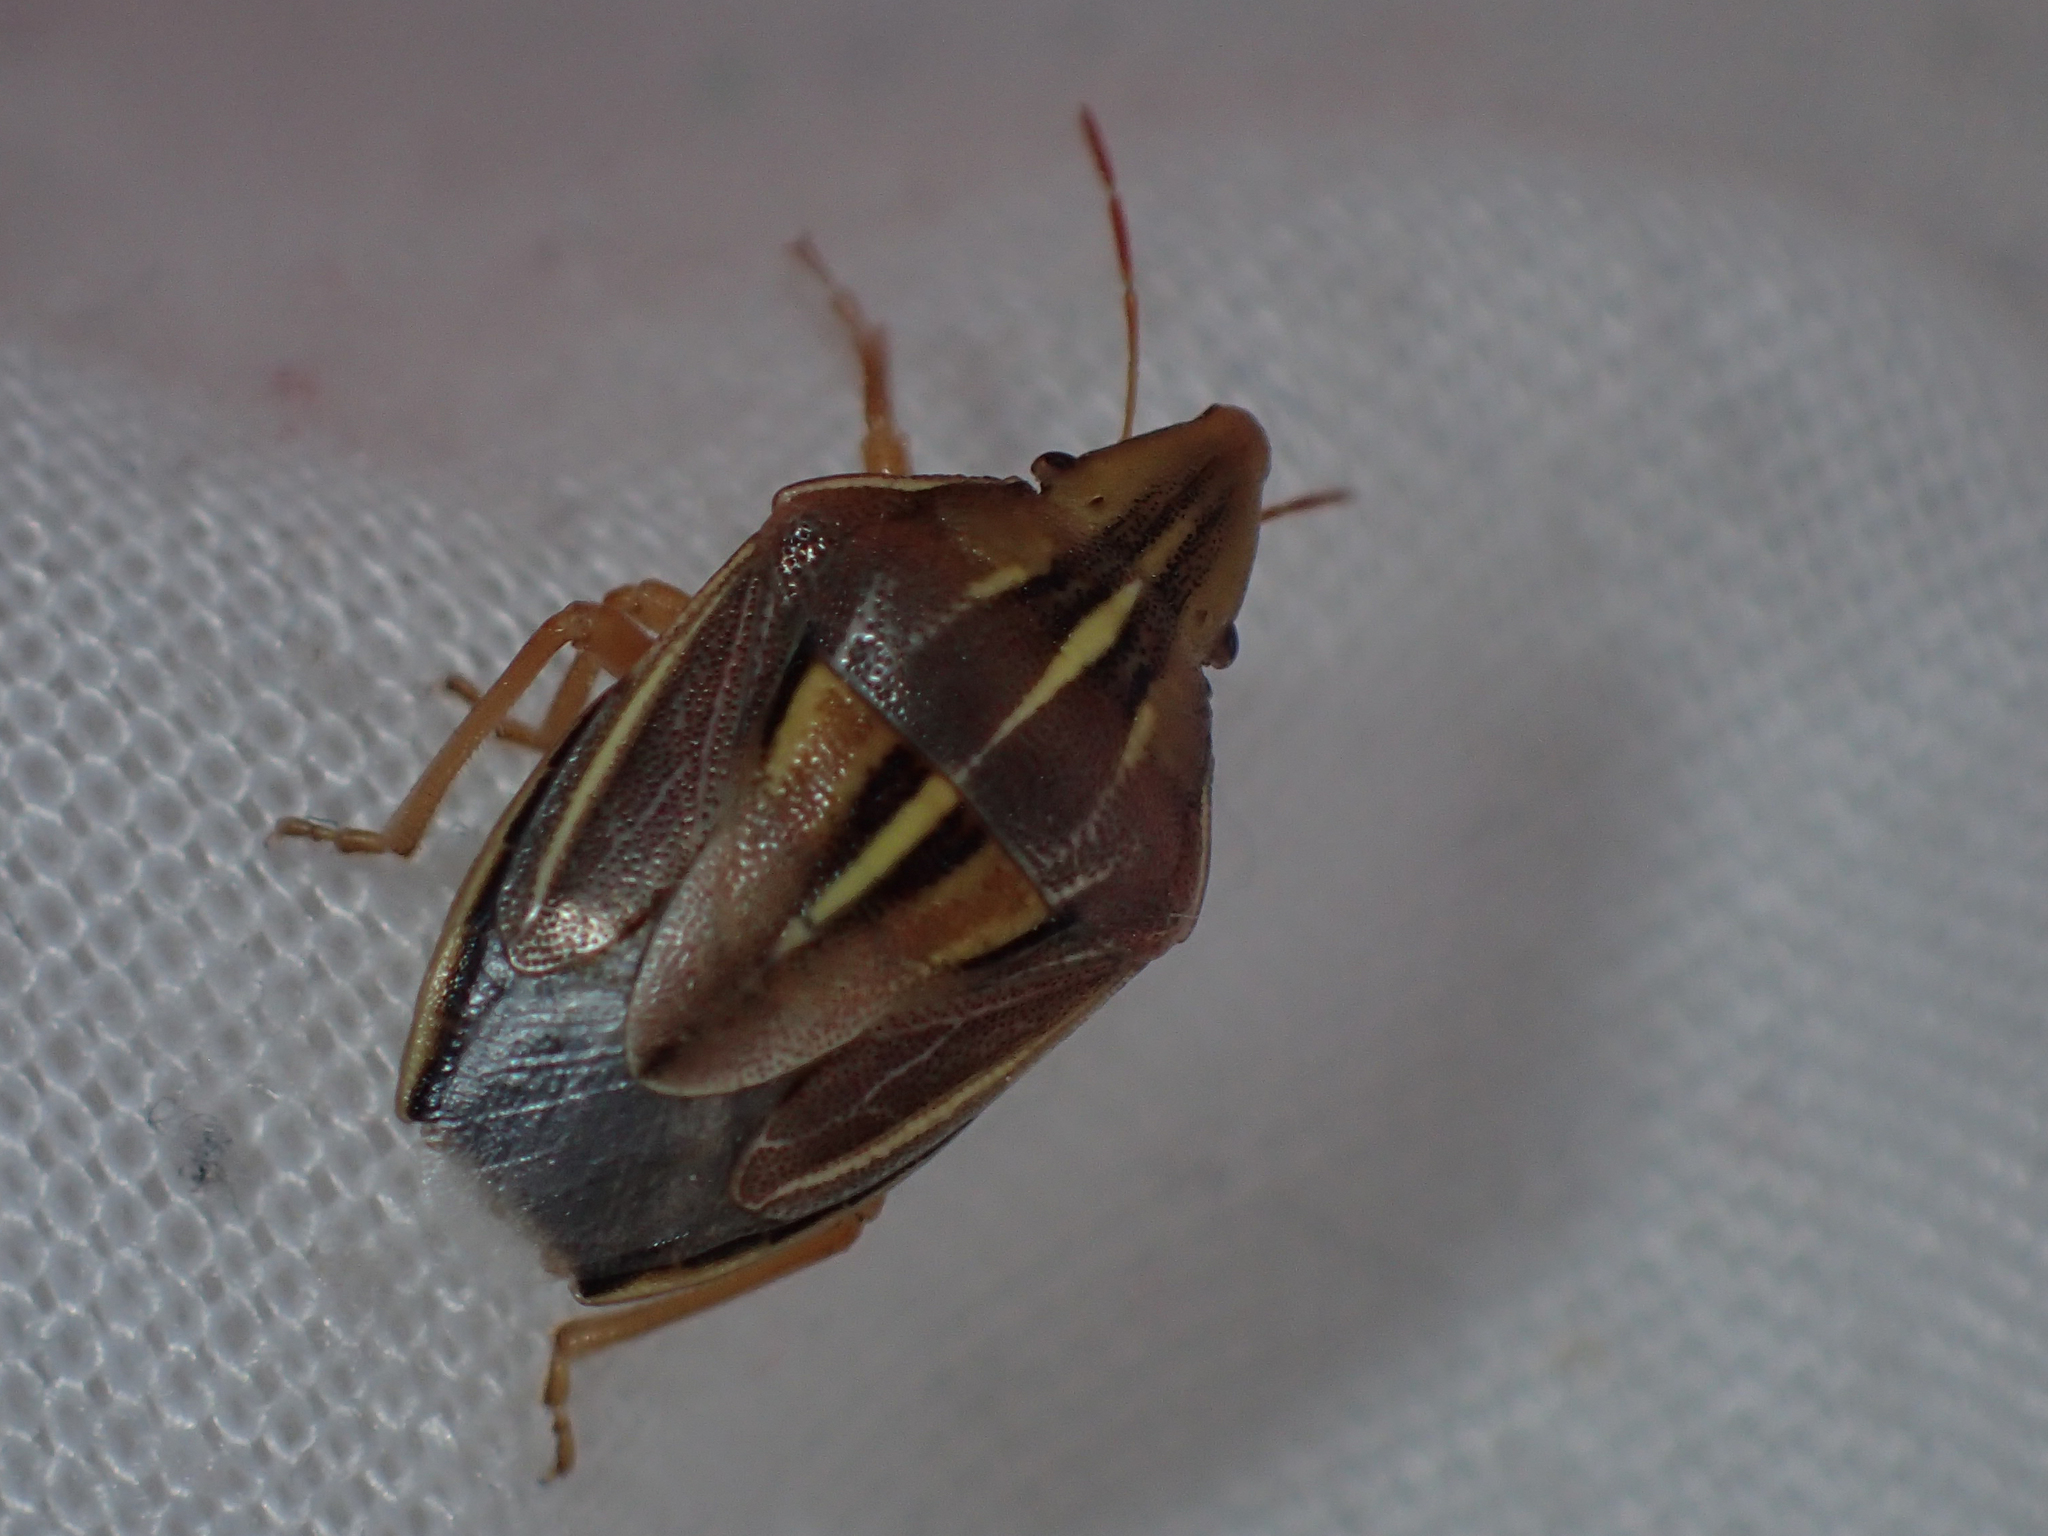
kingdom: Animalia
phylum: Arthropoda
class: Insecta
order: Hemiptera
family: Pentatomidae
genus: Aelia
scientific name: Aelia rostrata
